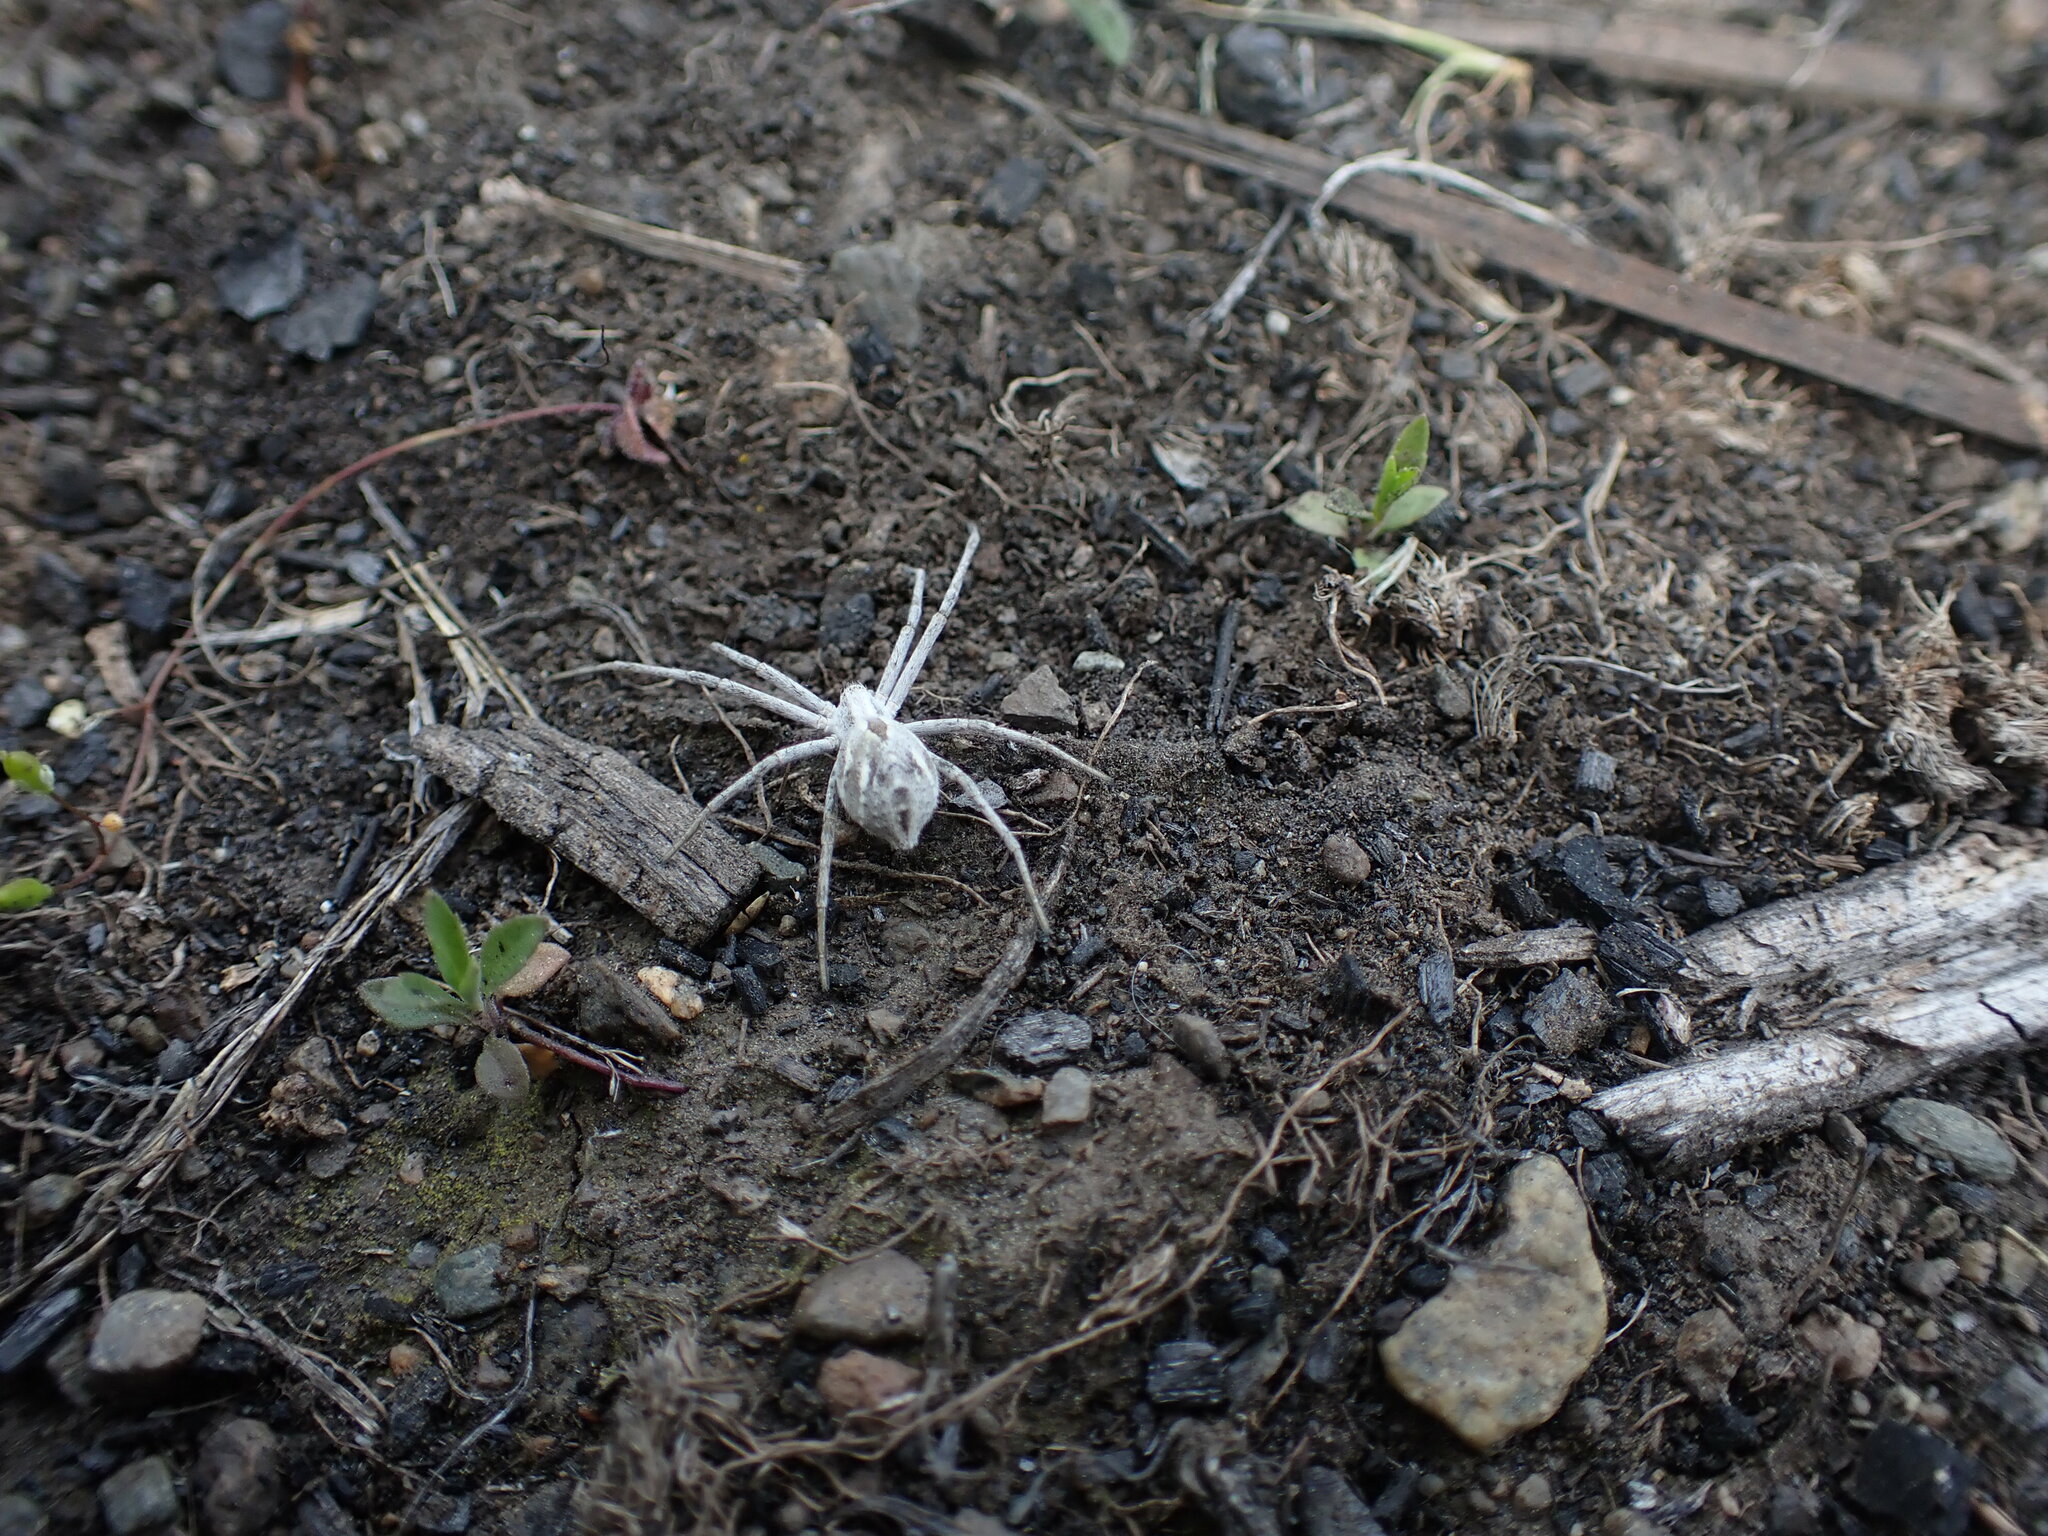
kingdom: Animalia
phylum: Arthropoda
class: Arachnida
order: Araneae
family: Philodromidae
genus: Rhysodromus
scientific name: Rhysodromus histrio
